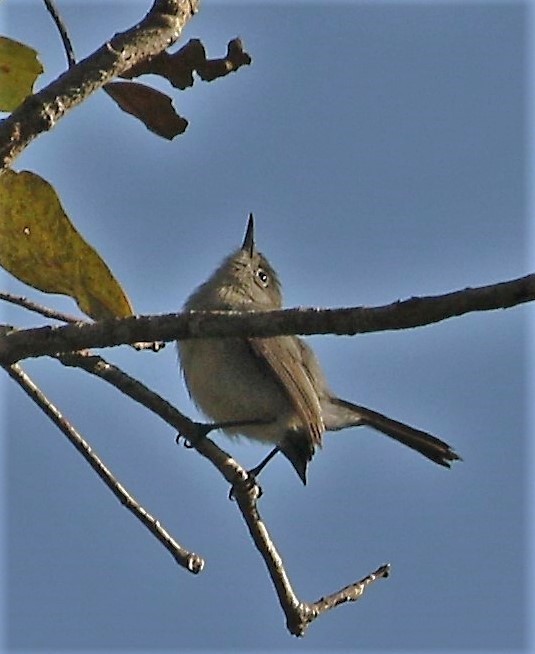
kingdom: Animalia
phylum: Chordata
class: Aves
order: Passeriformes
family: Polioptilidae
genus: Polioptila
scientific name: Polioptila caerulea
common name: Blue-gray gnatcatcher
